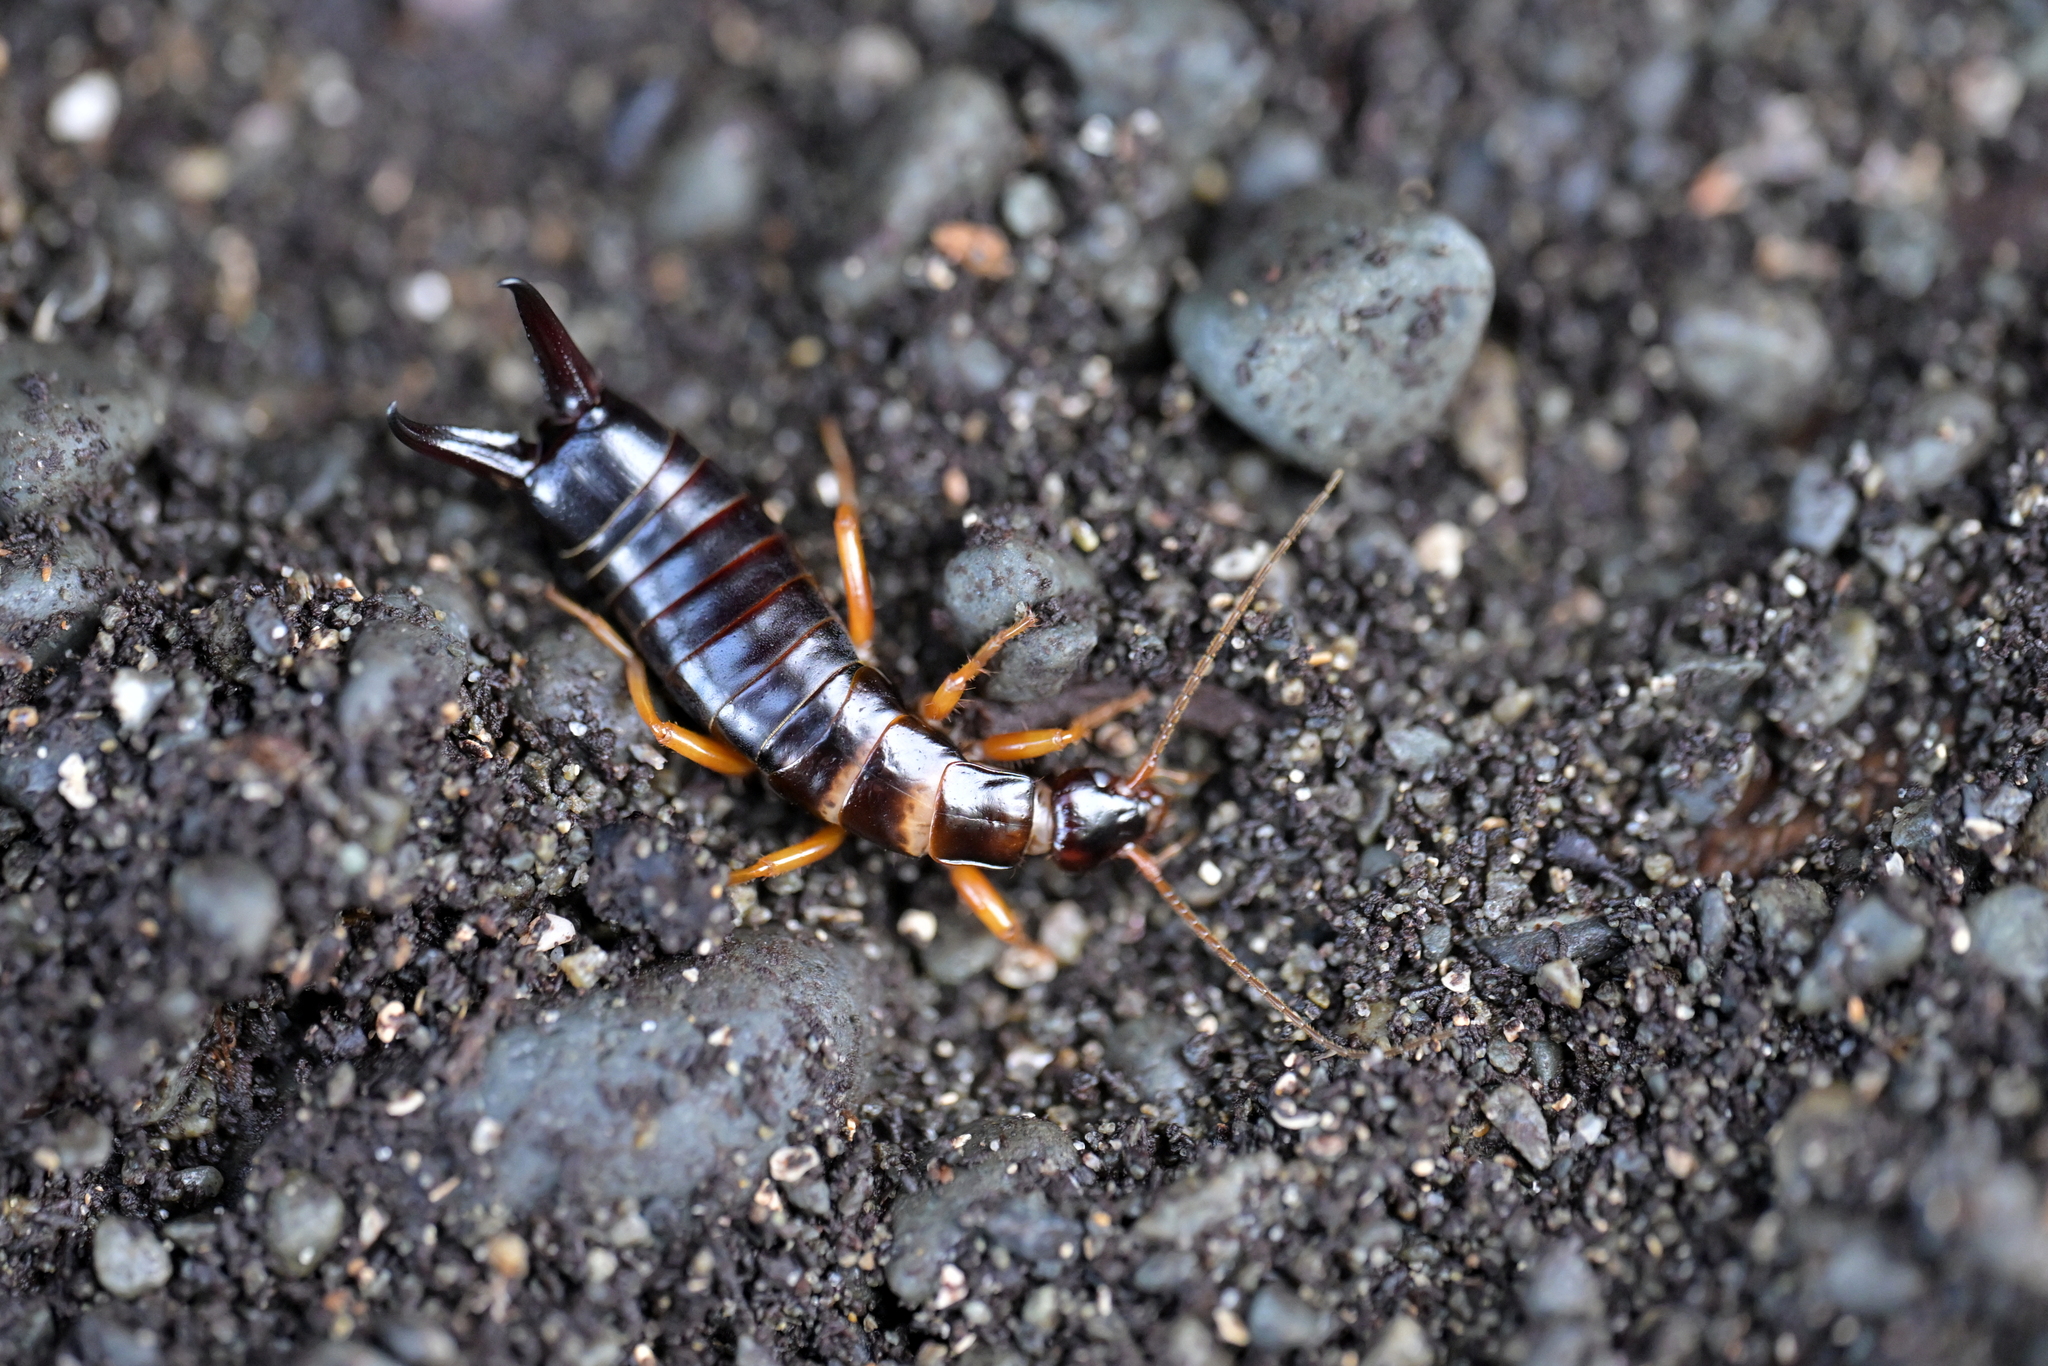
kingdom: Animalia
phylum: Arthropoda
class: Insecta
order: Dermaptera
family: Anisolabididae
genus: Anisolabis
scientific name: Anisolabis littorea
